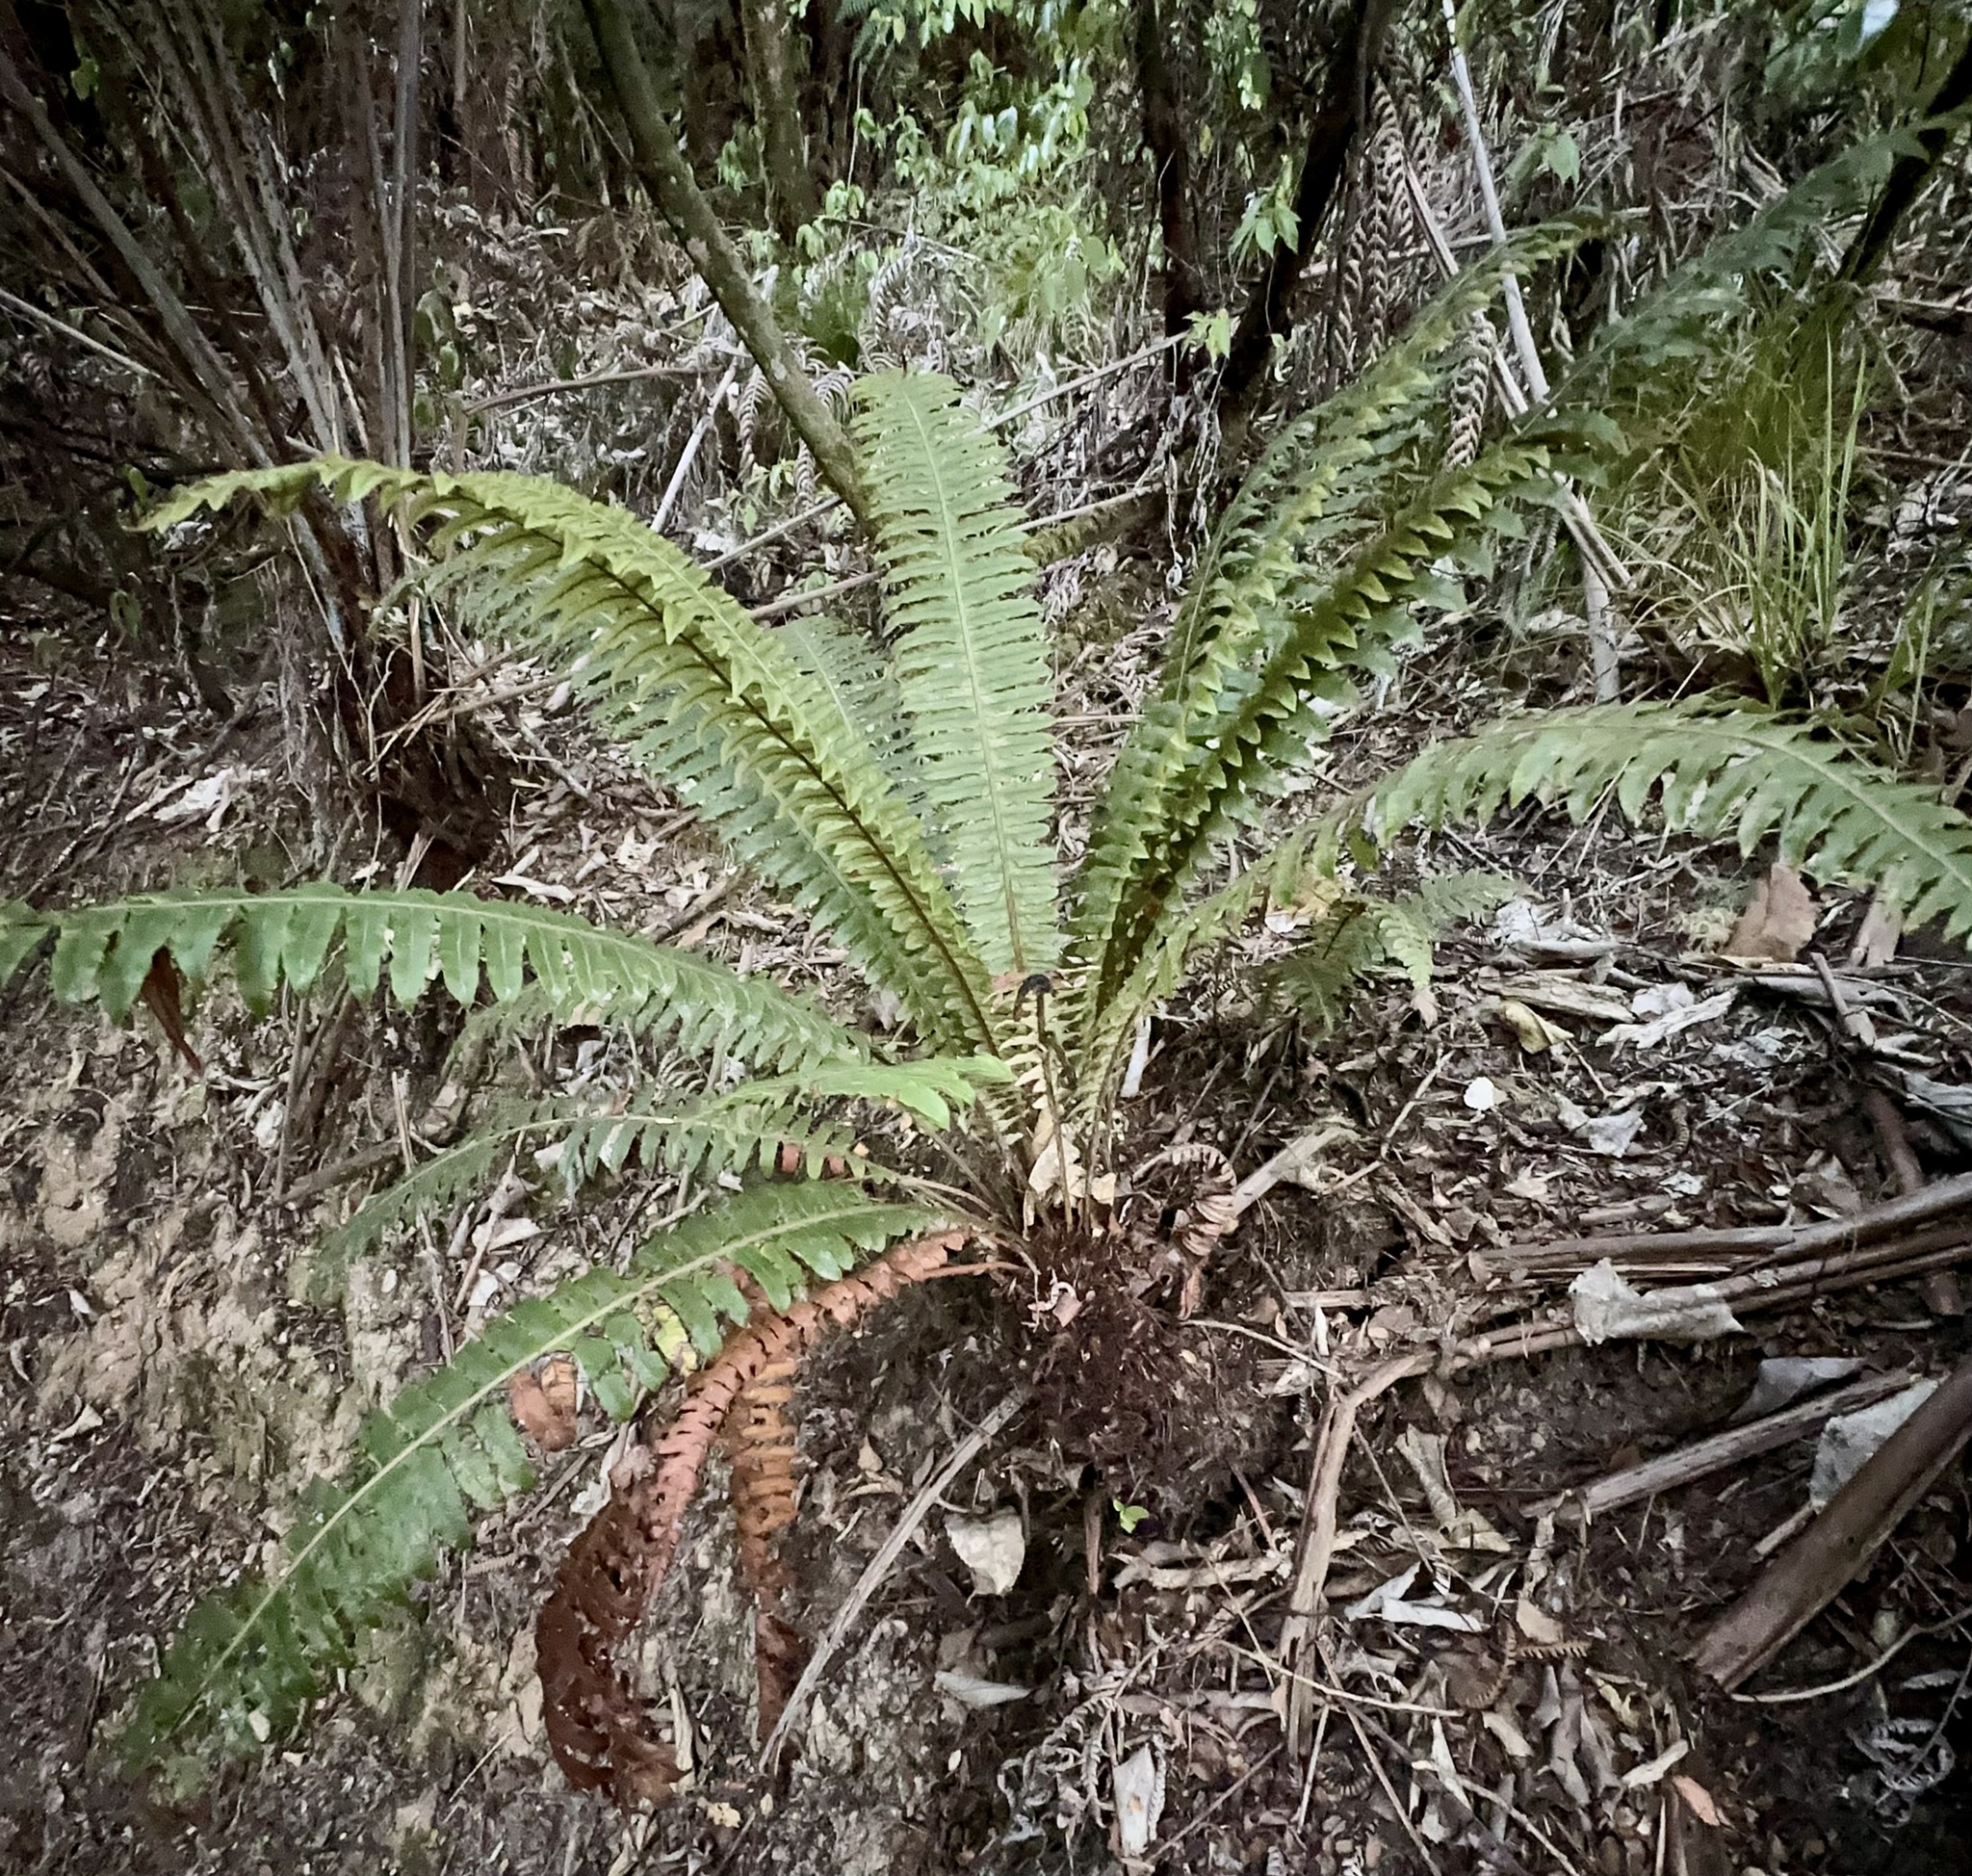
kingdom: Plantae
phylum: Tracheophyta
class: Polypodiopsida
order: Polypodiales
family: Blechnaceae
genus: Lomaria
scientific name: Lomaria discolor
